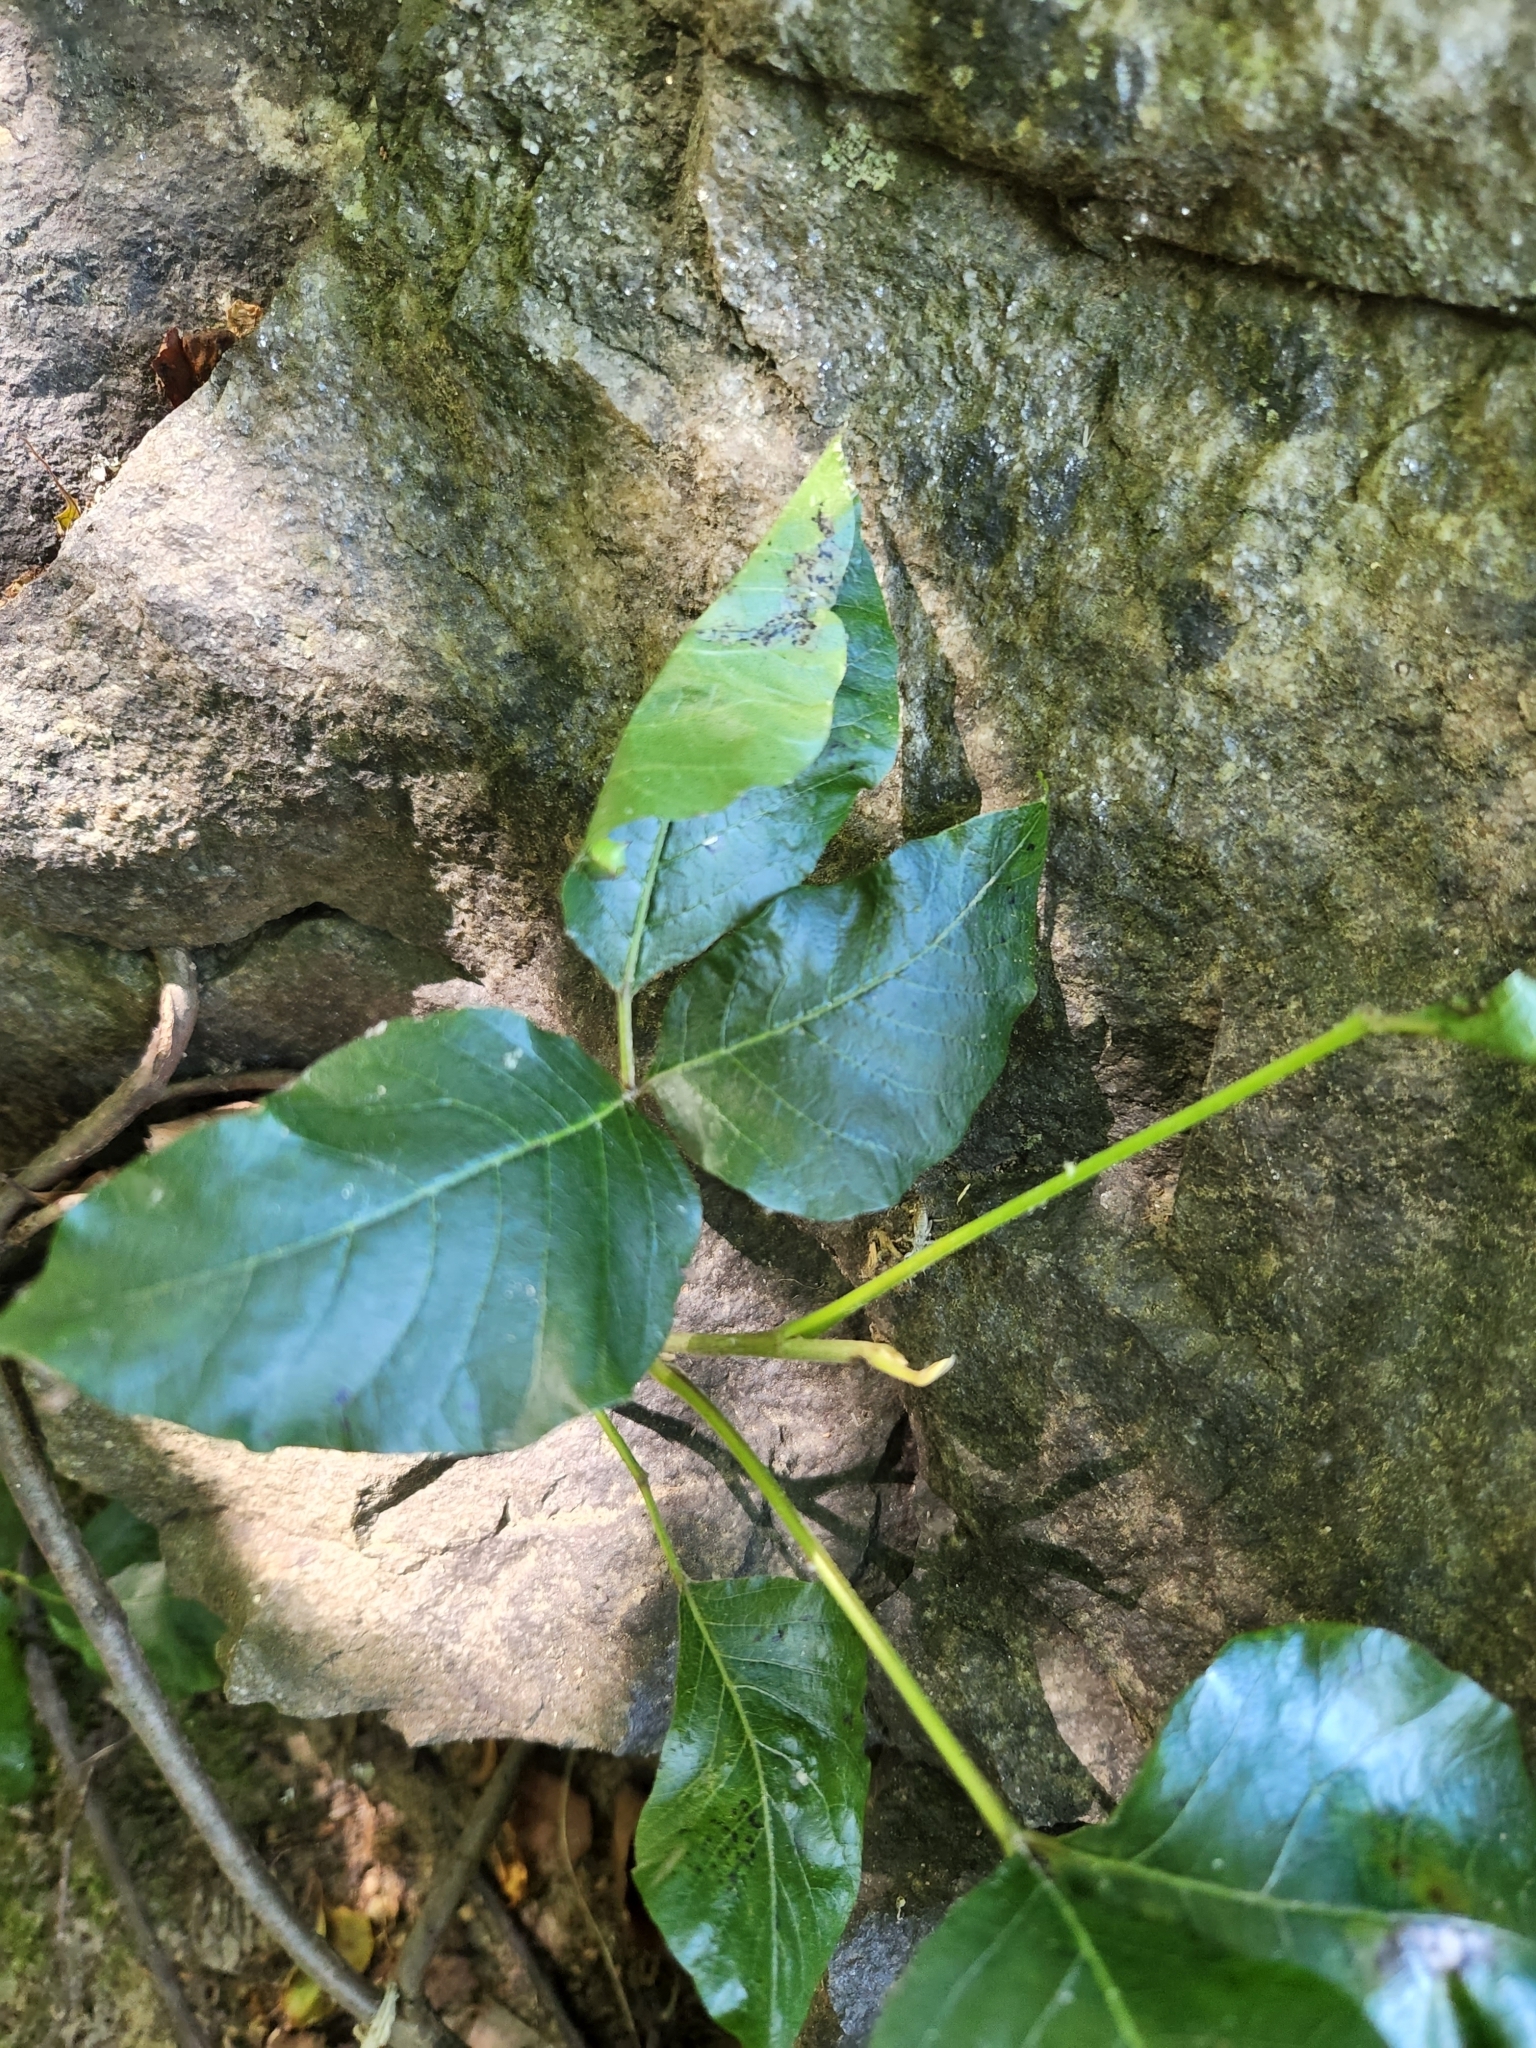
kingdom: Plantae
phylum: Tracheophyta
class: Magnoliopsida
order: Sapindales
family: Anacardiaceae
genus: Toxicodendron
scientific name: Toxicodendron radicans
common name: Poison ivy
